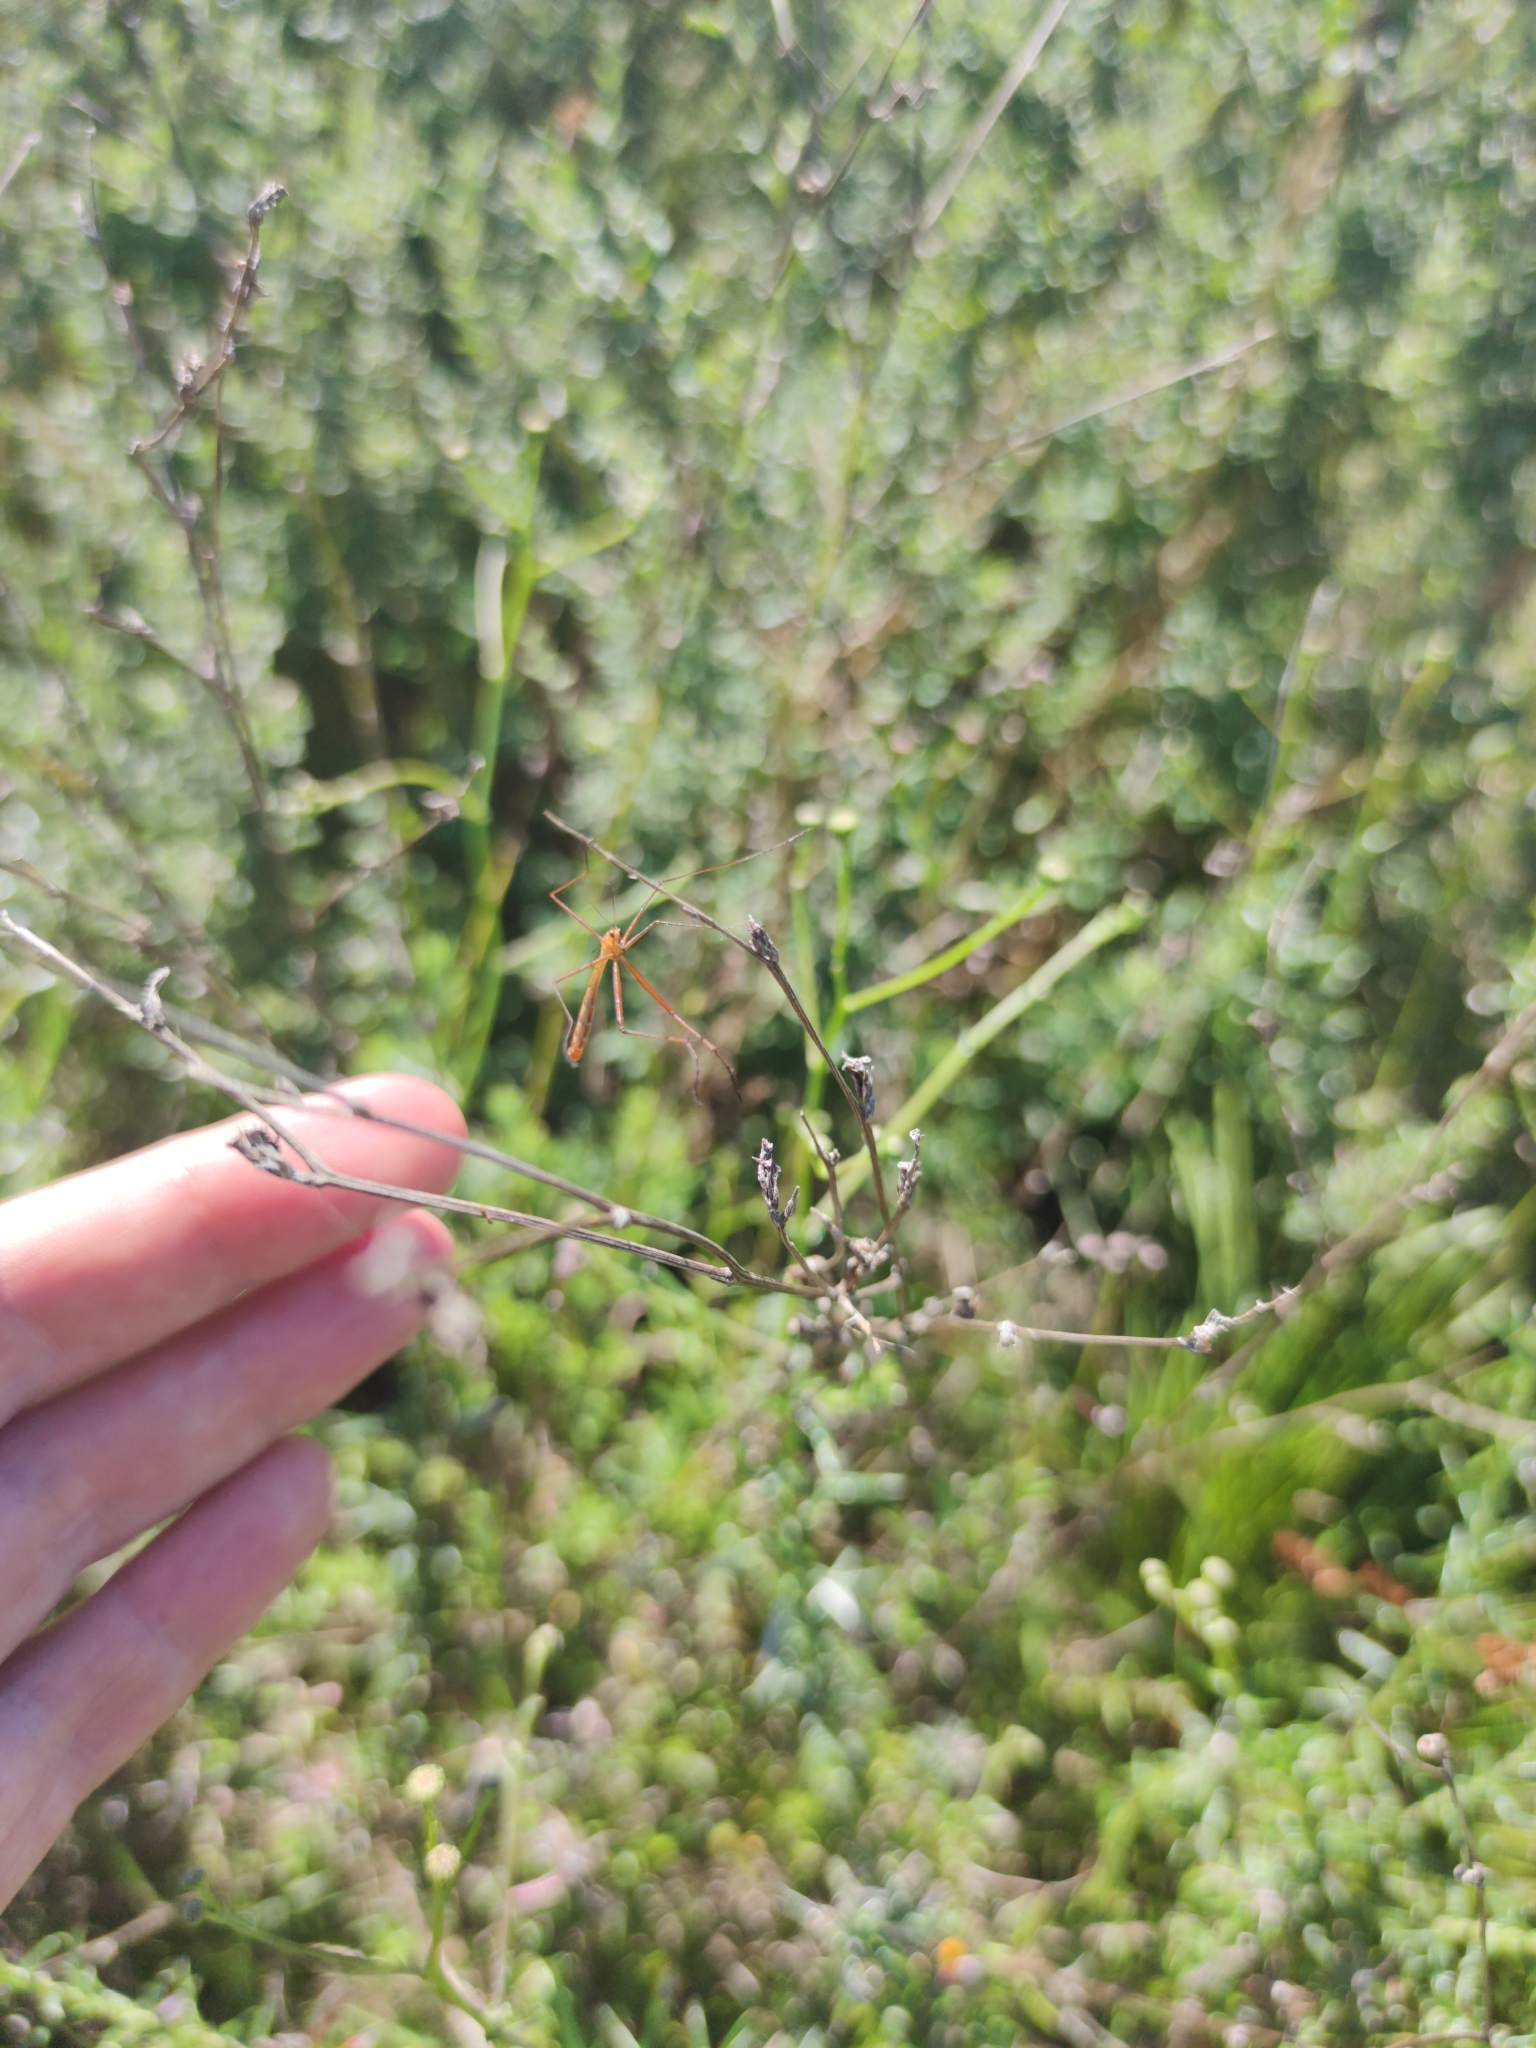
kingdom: Animalia
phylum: Arthropoda
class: Insecta
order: Mecoptera
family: Bittacidae
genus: Anomalobittacus
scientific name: Anomalobittacus gracilipes
